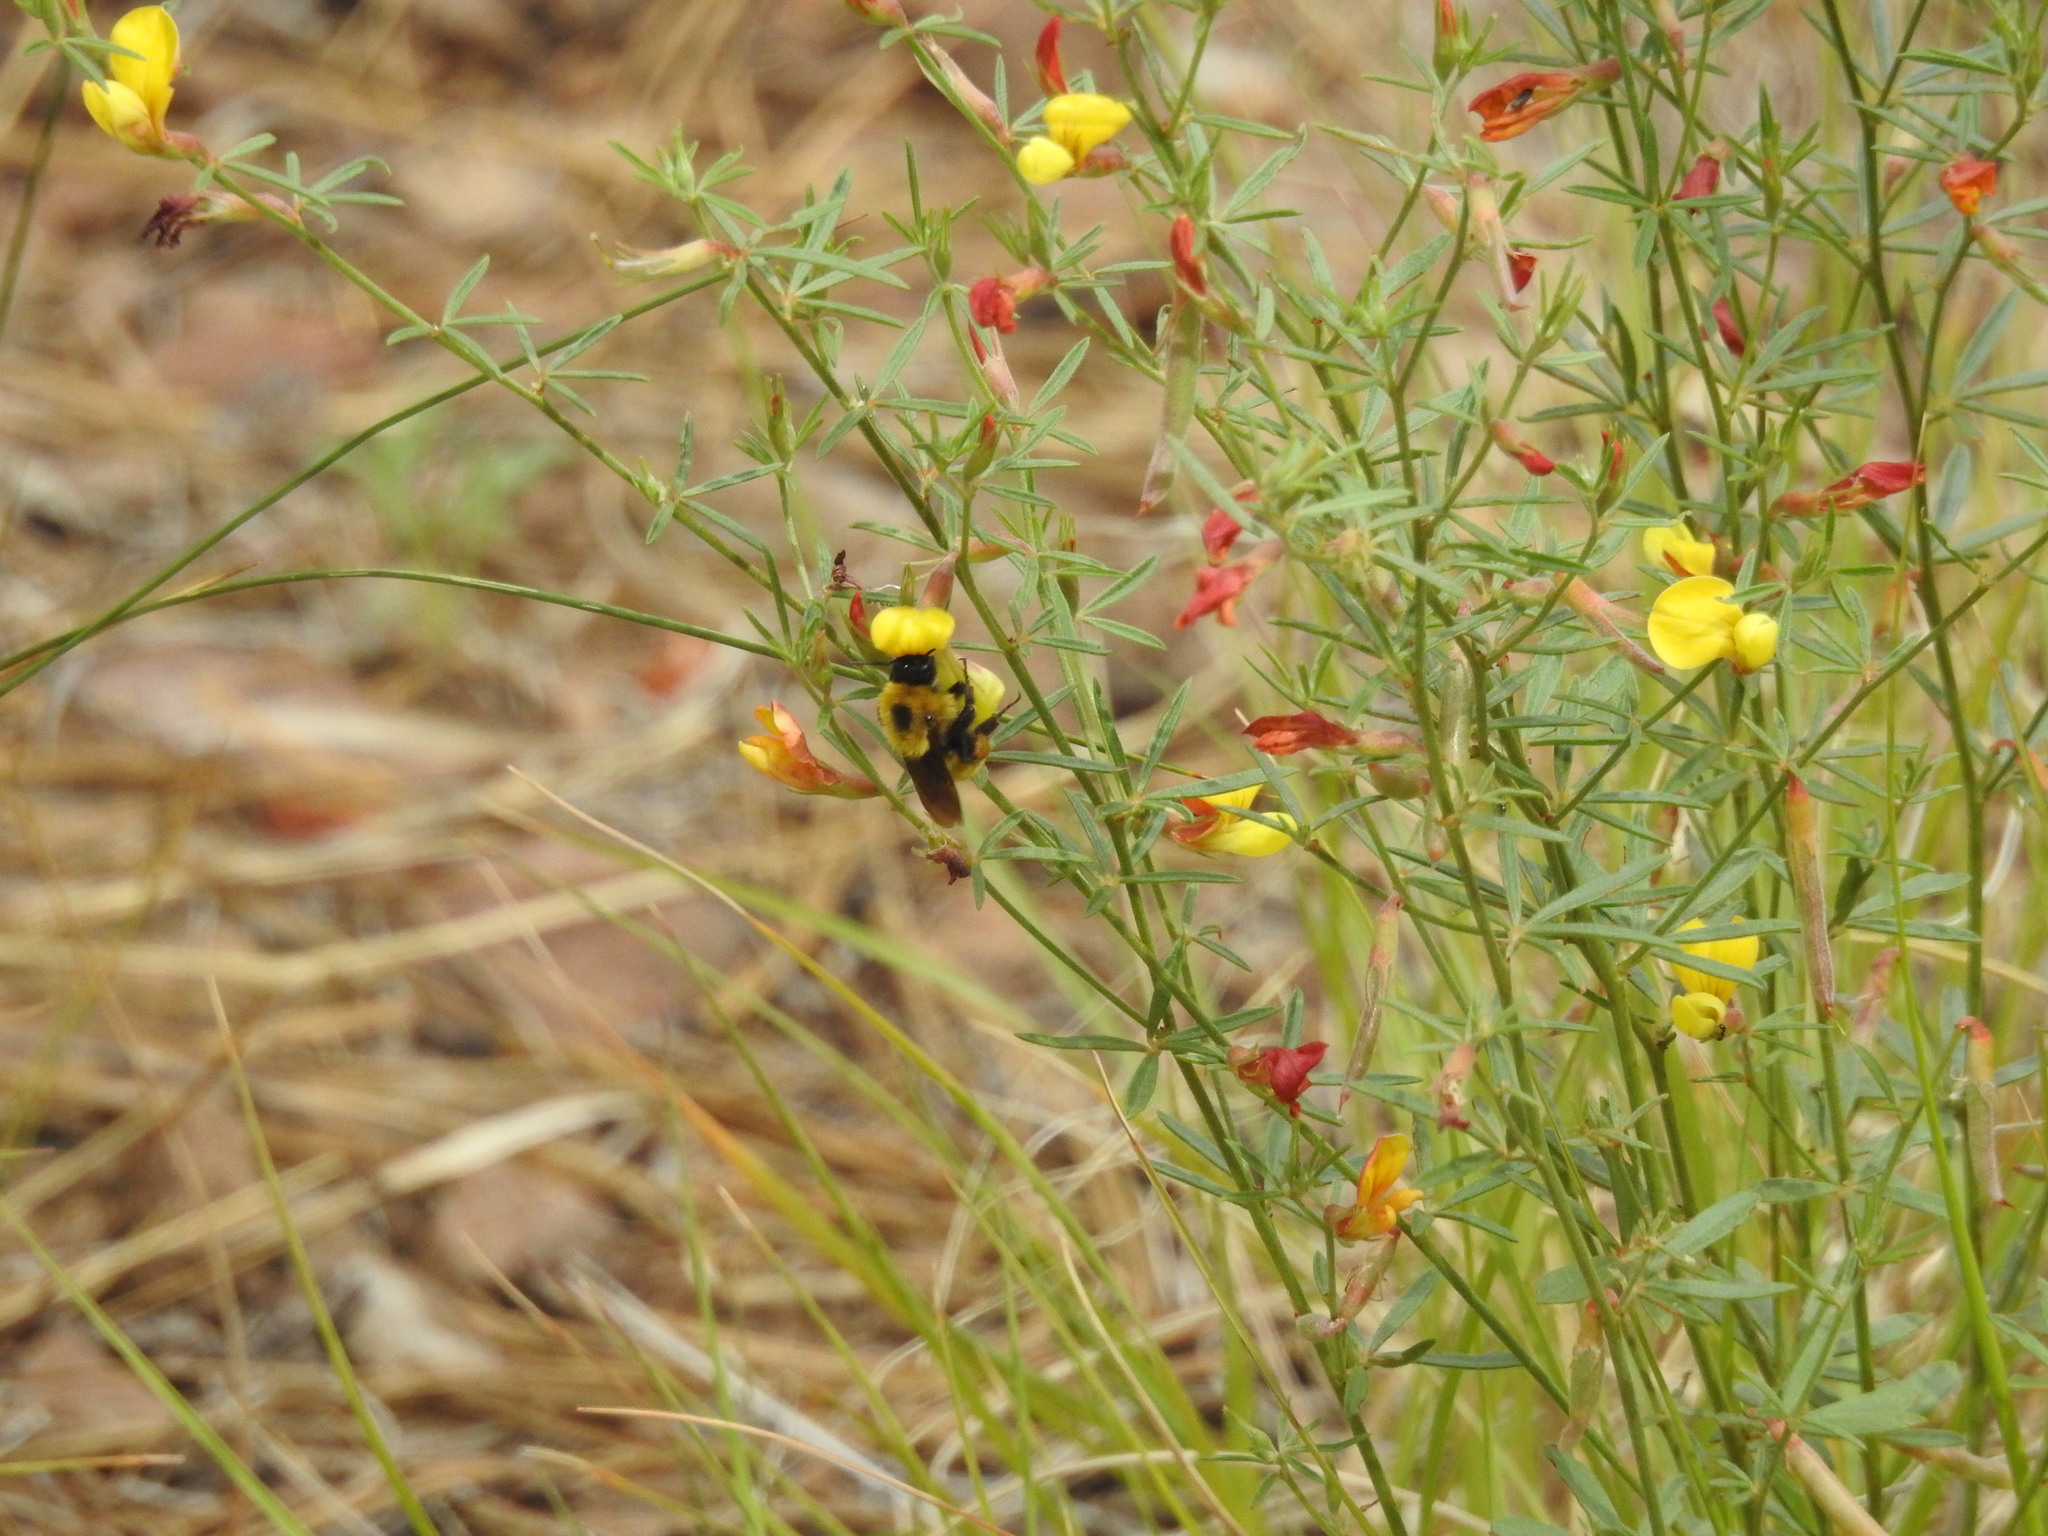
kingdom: Animalia
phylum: Arthropoda
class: Insecta
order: Hymenoptera
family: Apidae
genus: Bombus
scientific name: Bombus fervidus
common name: Yellow bumble bee
